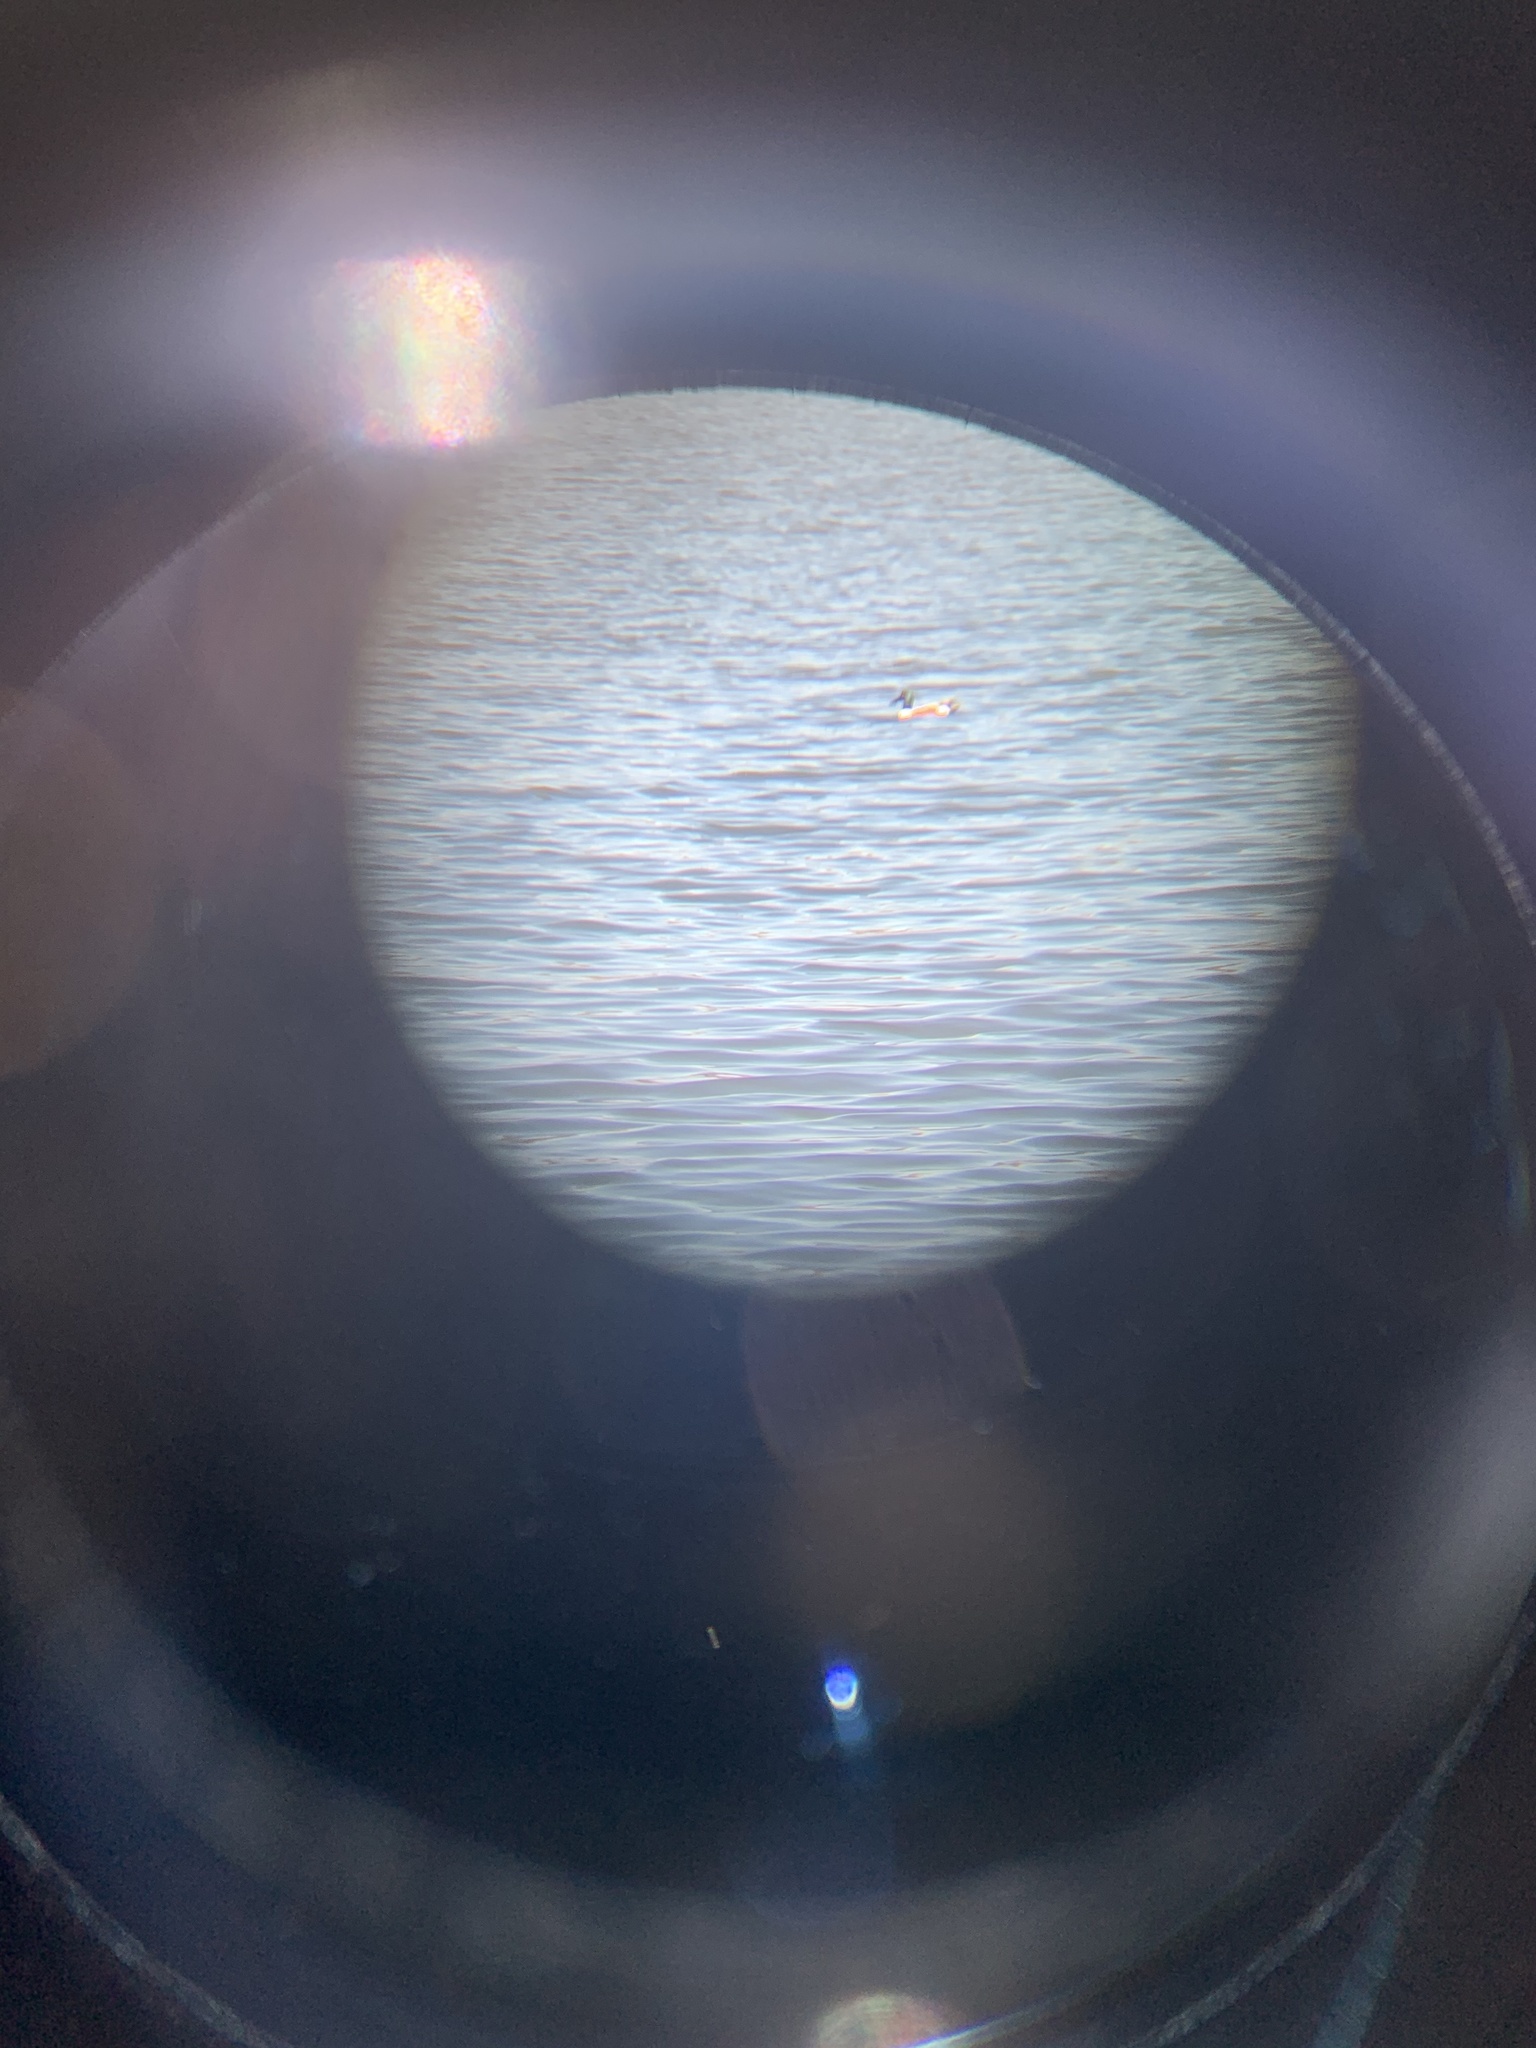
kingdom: Animalia
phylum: Chordata
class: Aves
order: Anseriformes
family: Anatidae
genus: Spatula
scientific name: Spatula clypeata
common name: Northern shoveler
